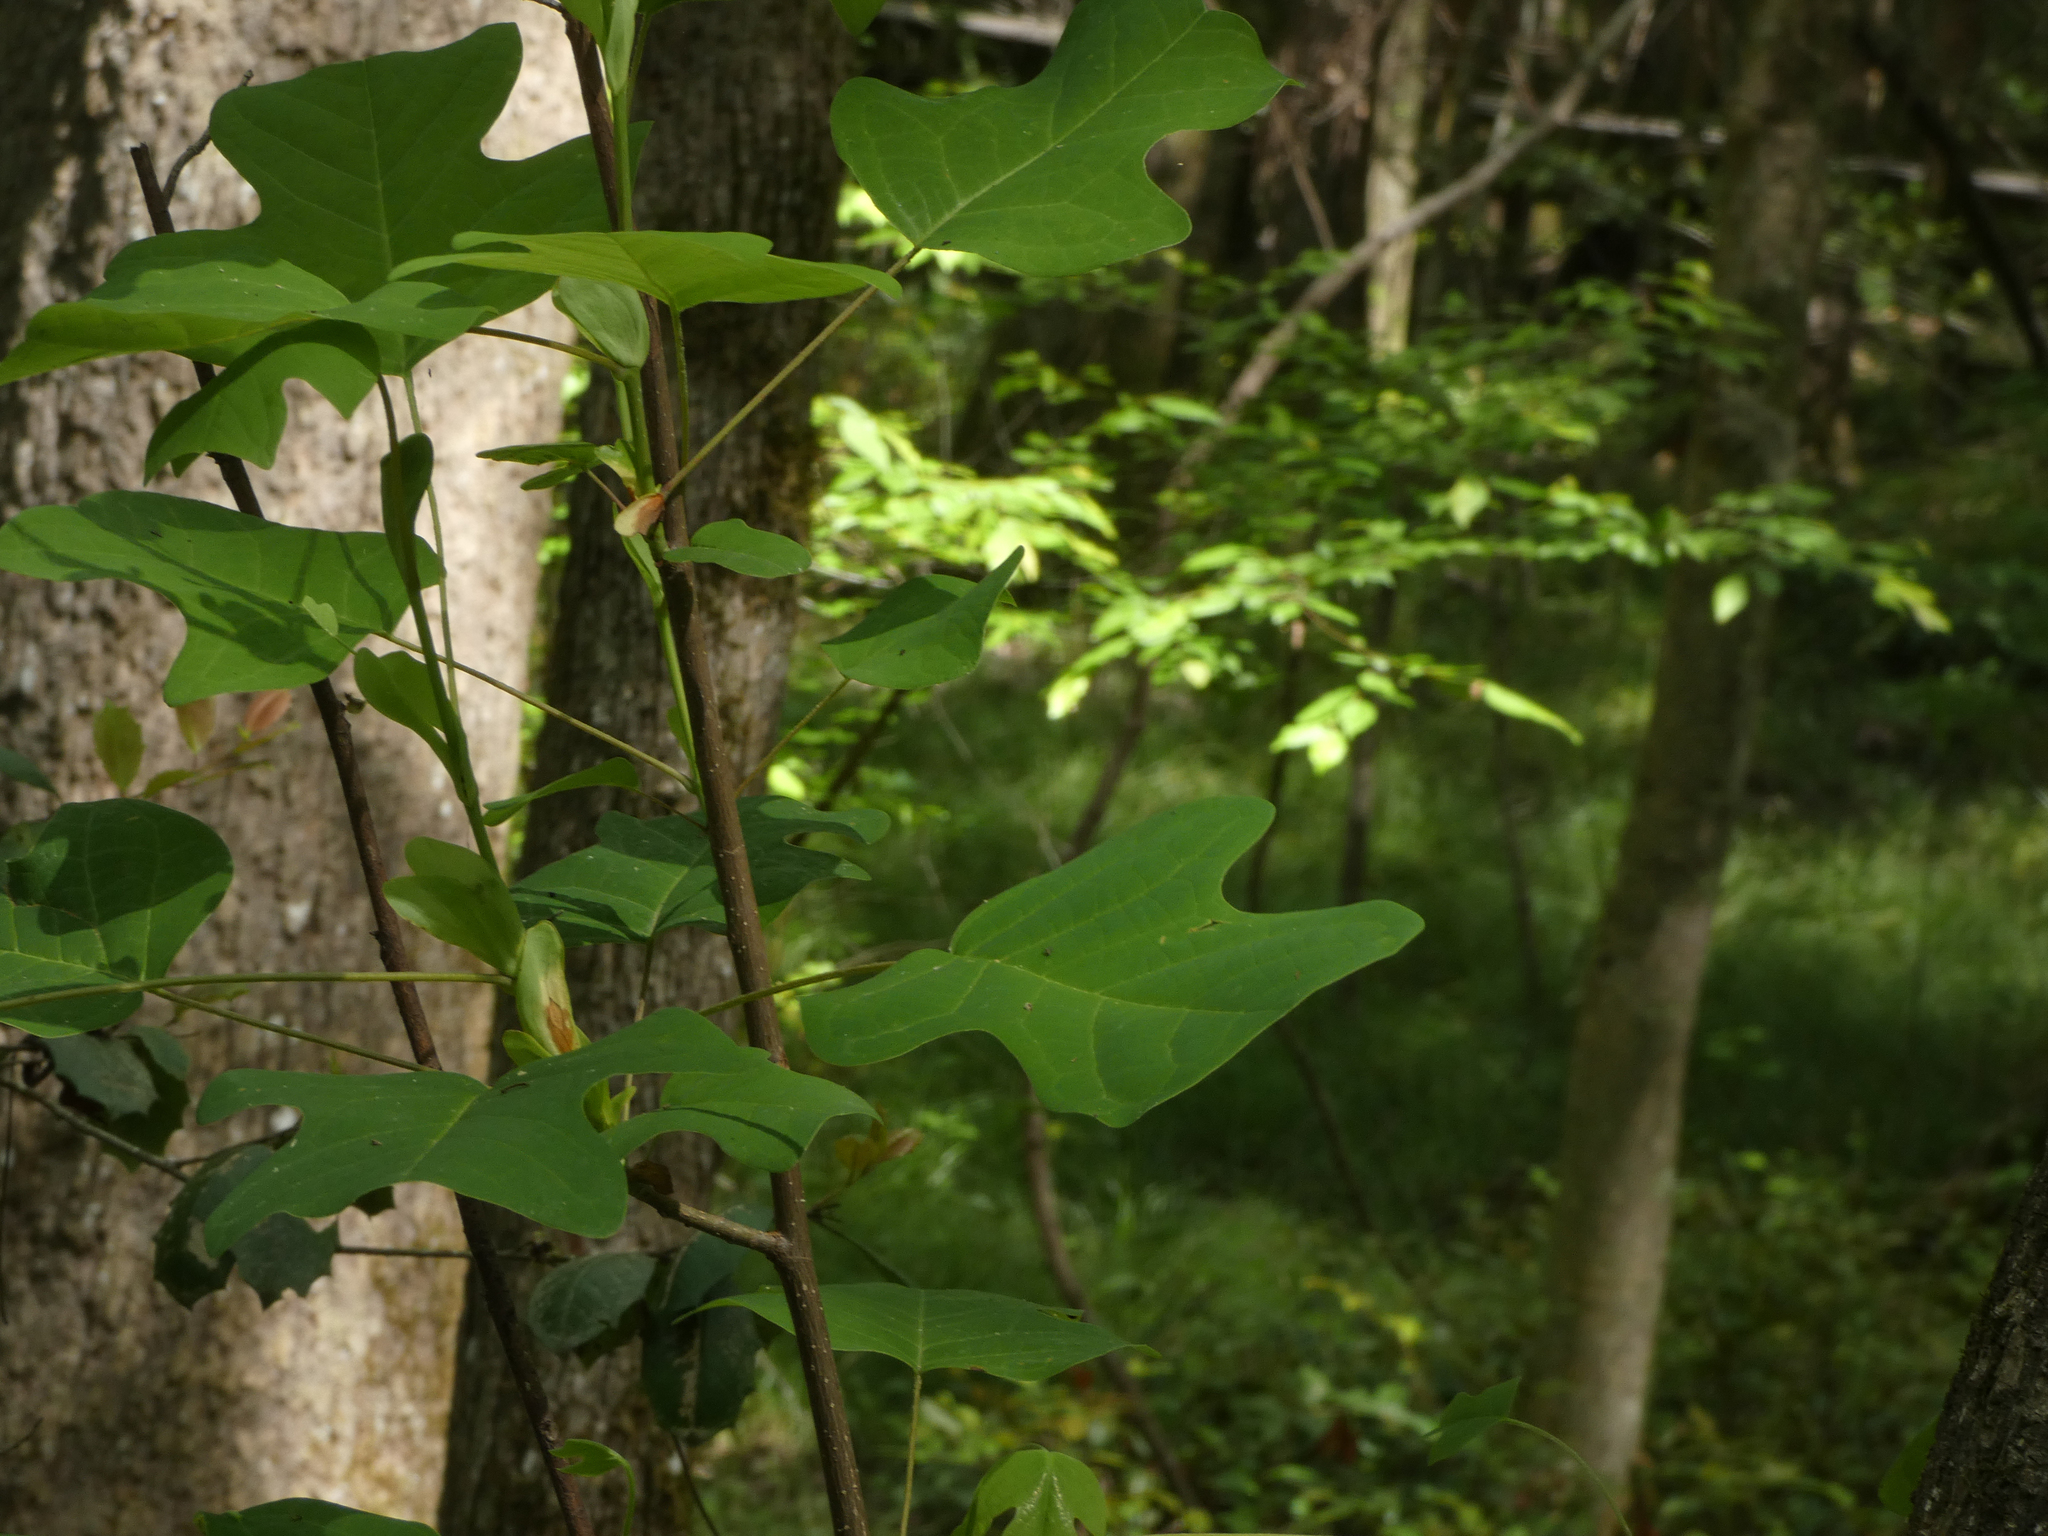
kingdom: Plantae
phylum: Tracheophyta
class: Magnoliopsida
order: Magnoliales
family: Magnoliaceae
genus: Liriodendron
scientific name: Liriodendron tulipifera
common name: Tulip tree
